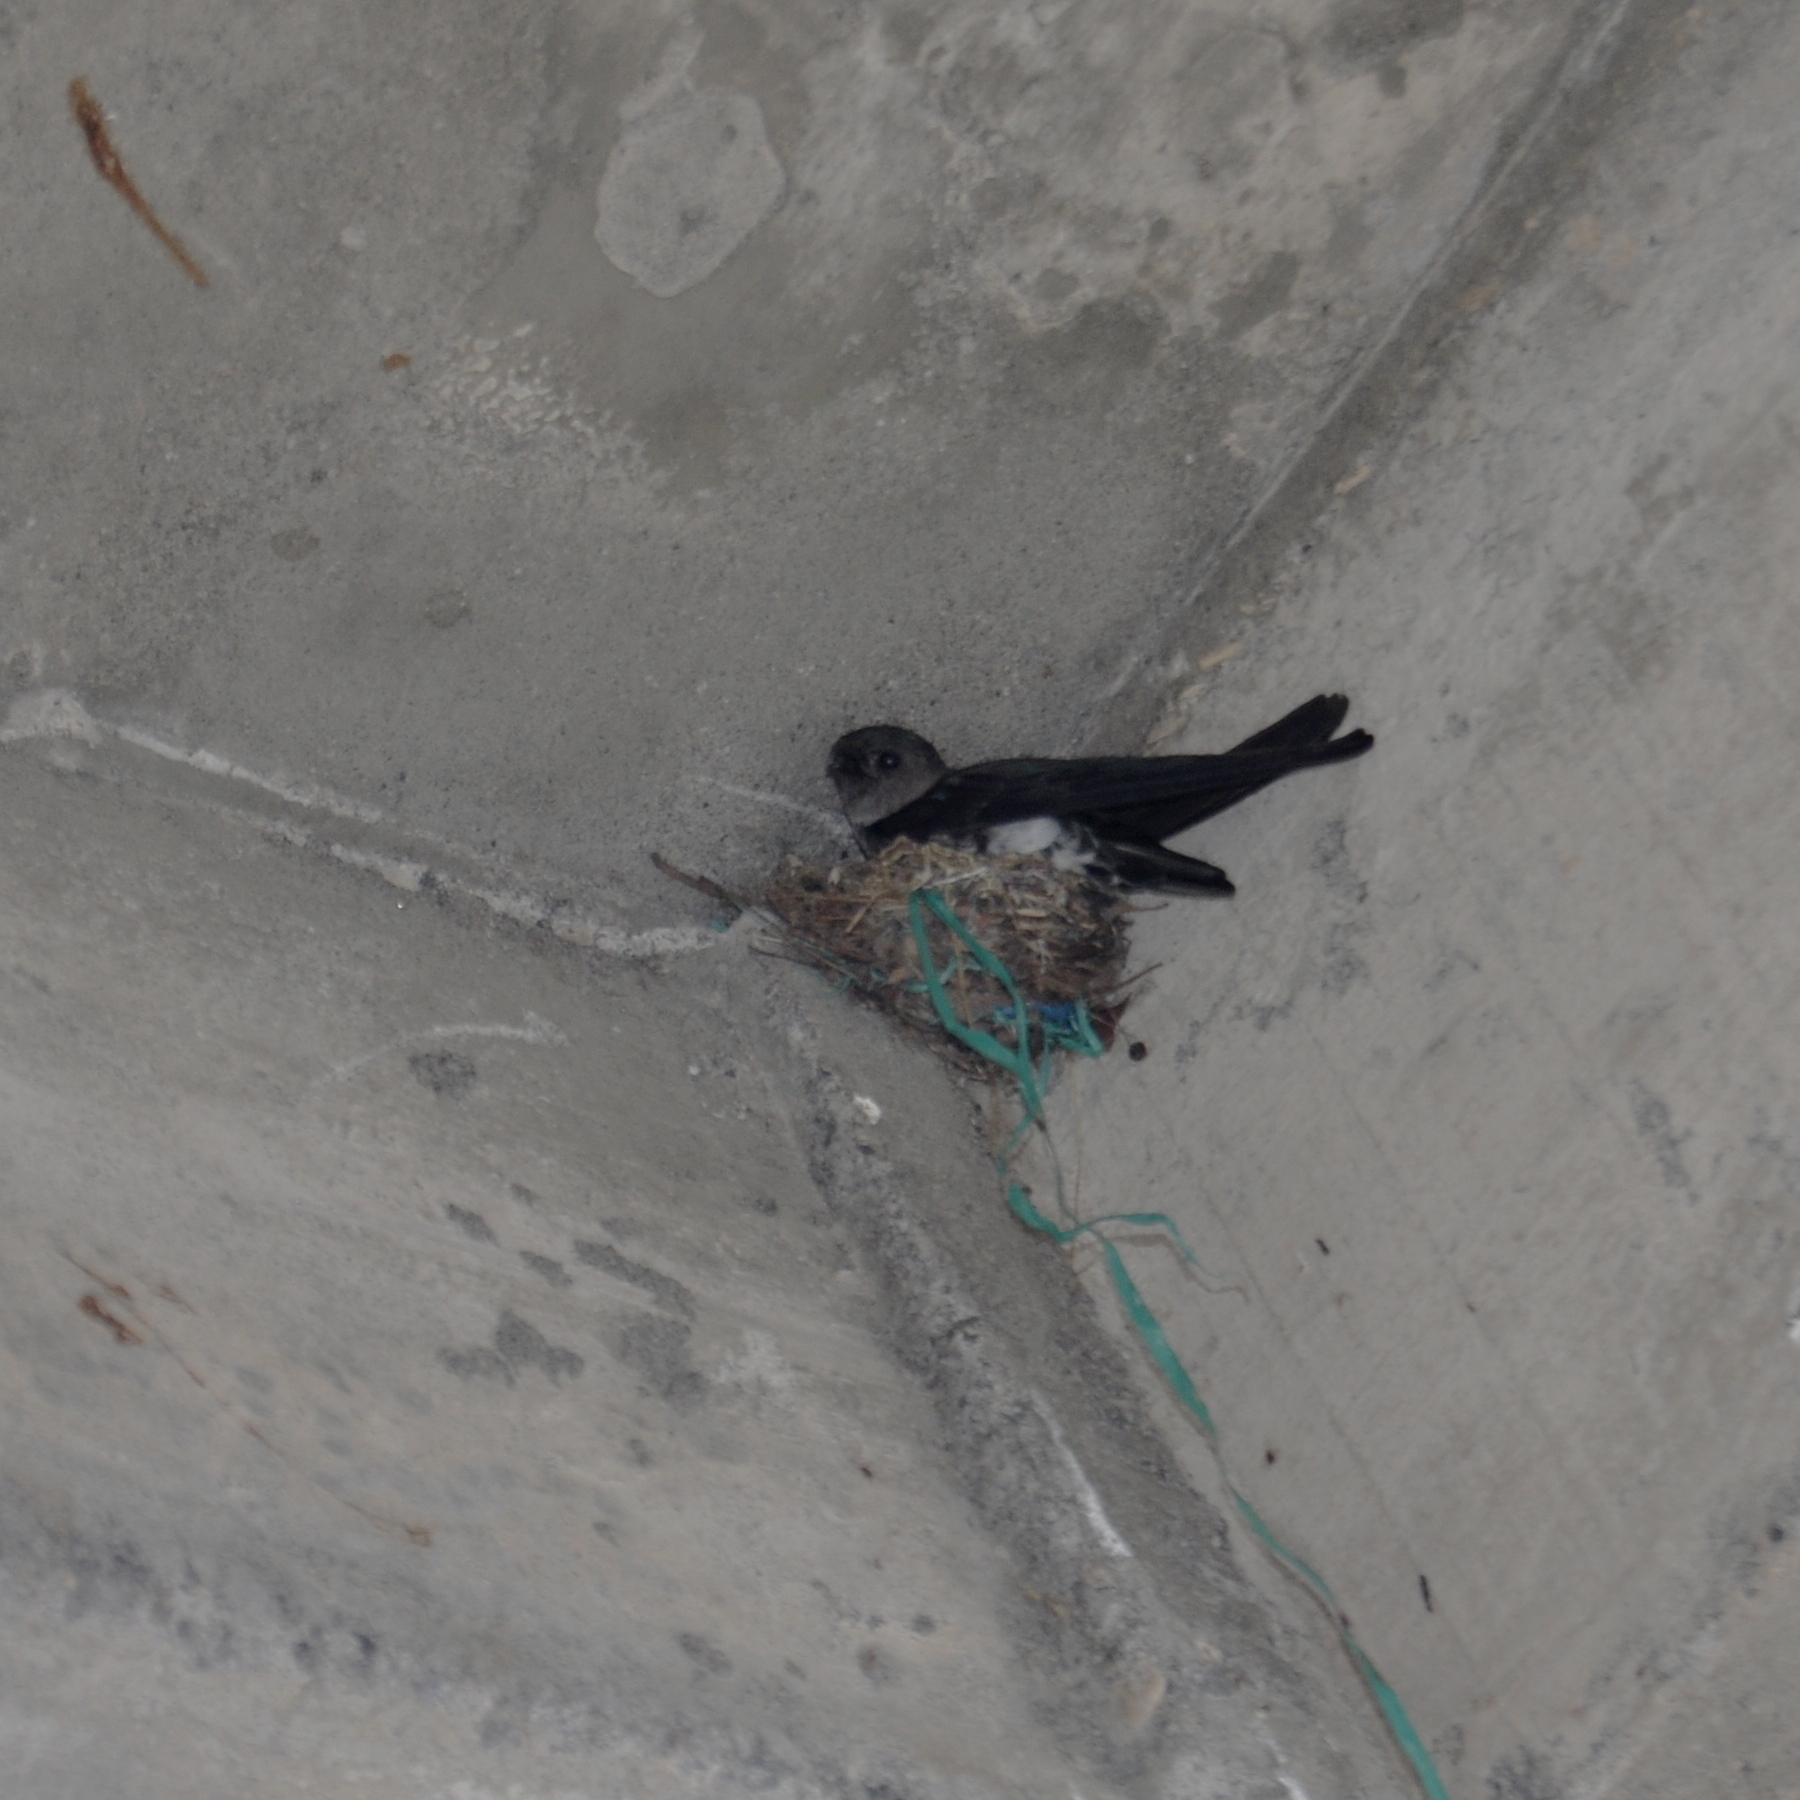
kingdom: Animalia
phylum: Chordata
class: Aves
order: Apodiformes
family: Apodidae
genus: Collocalia
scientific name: Collocalia linchi
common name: Cave swiftlet
